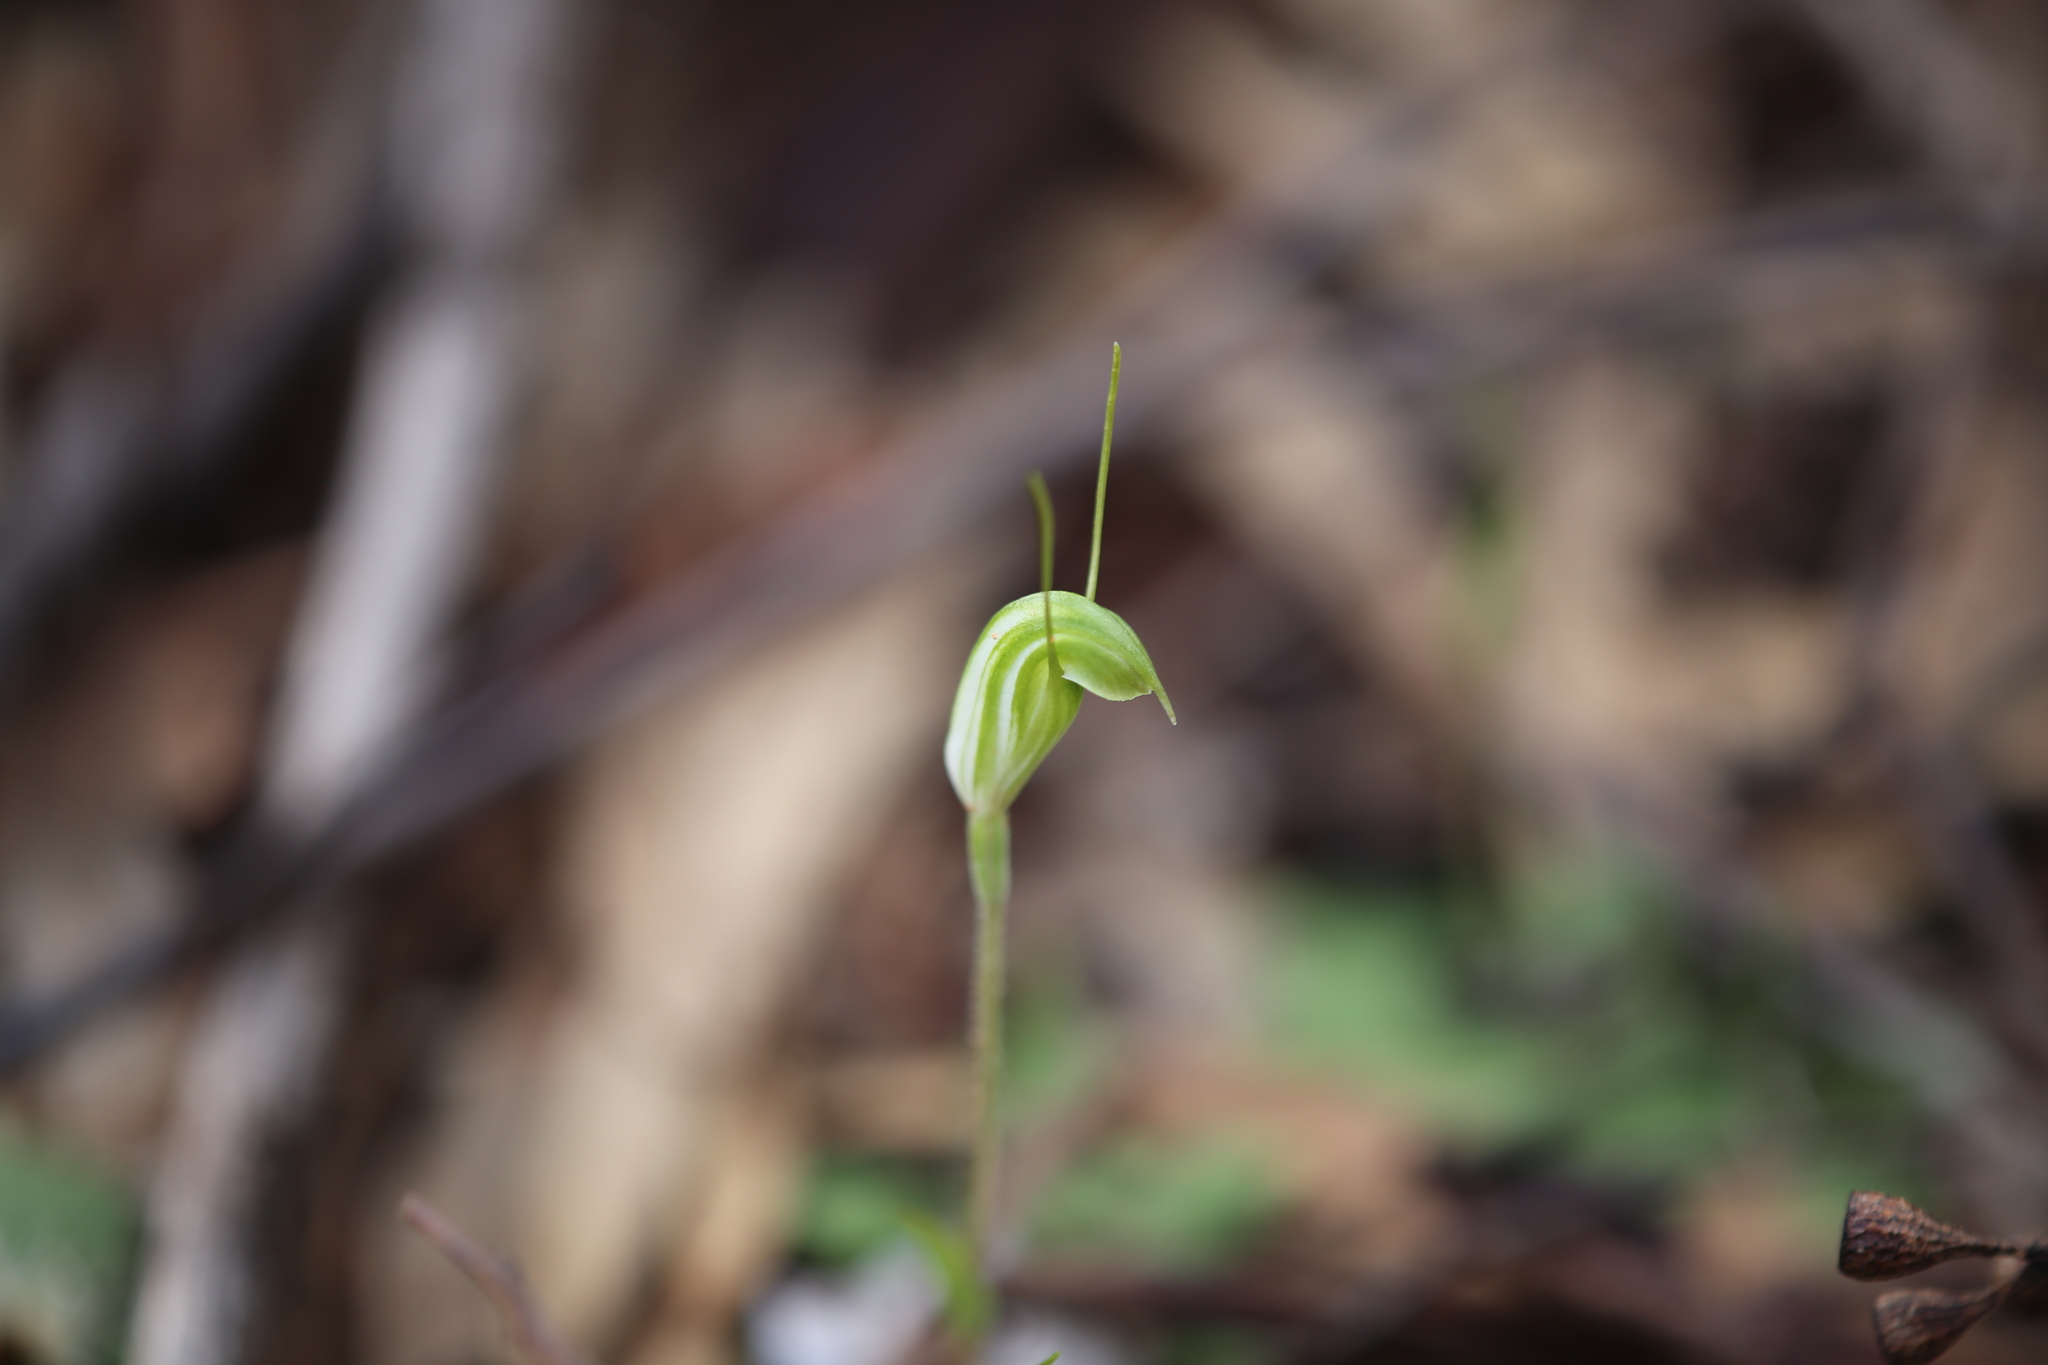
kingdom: Plantae
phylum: Tracheophyta
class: Liliopsida
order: Asparagales
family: Orchidaceae
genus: Pterostylis
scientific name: Pterostylis setulosa
